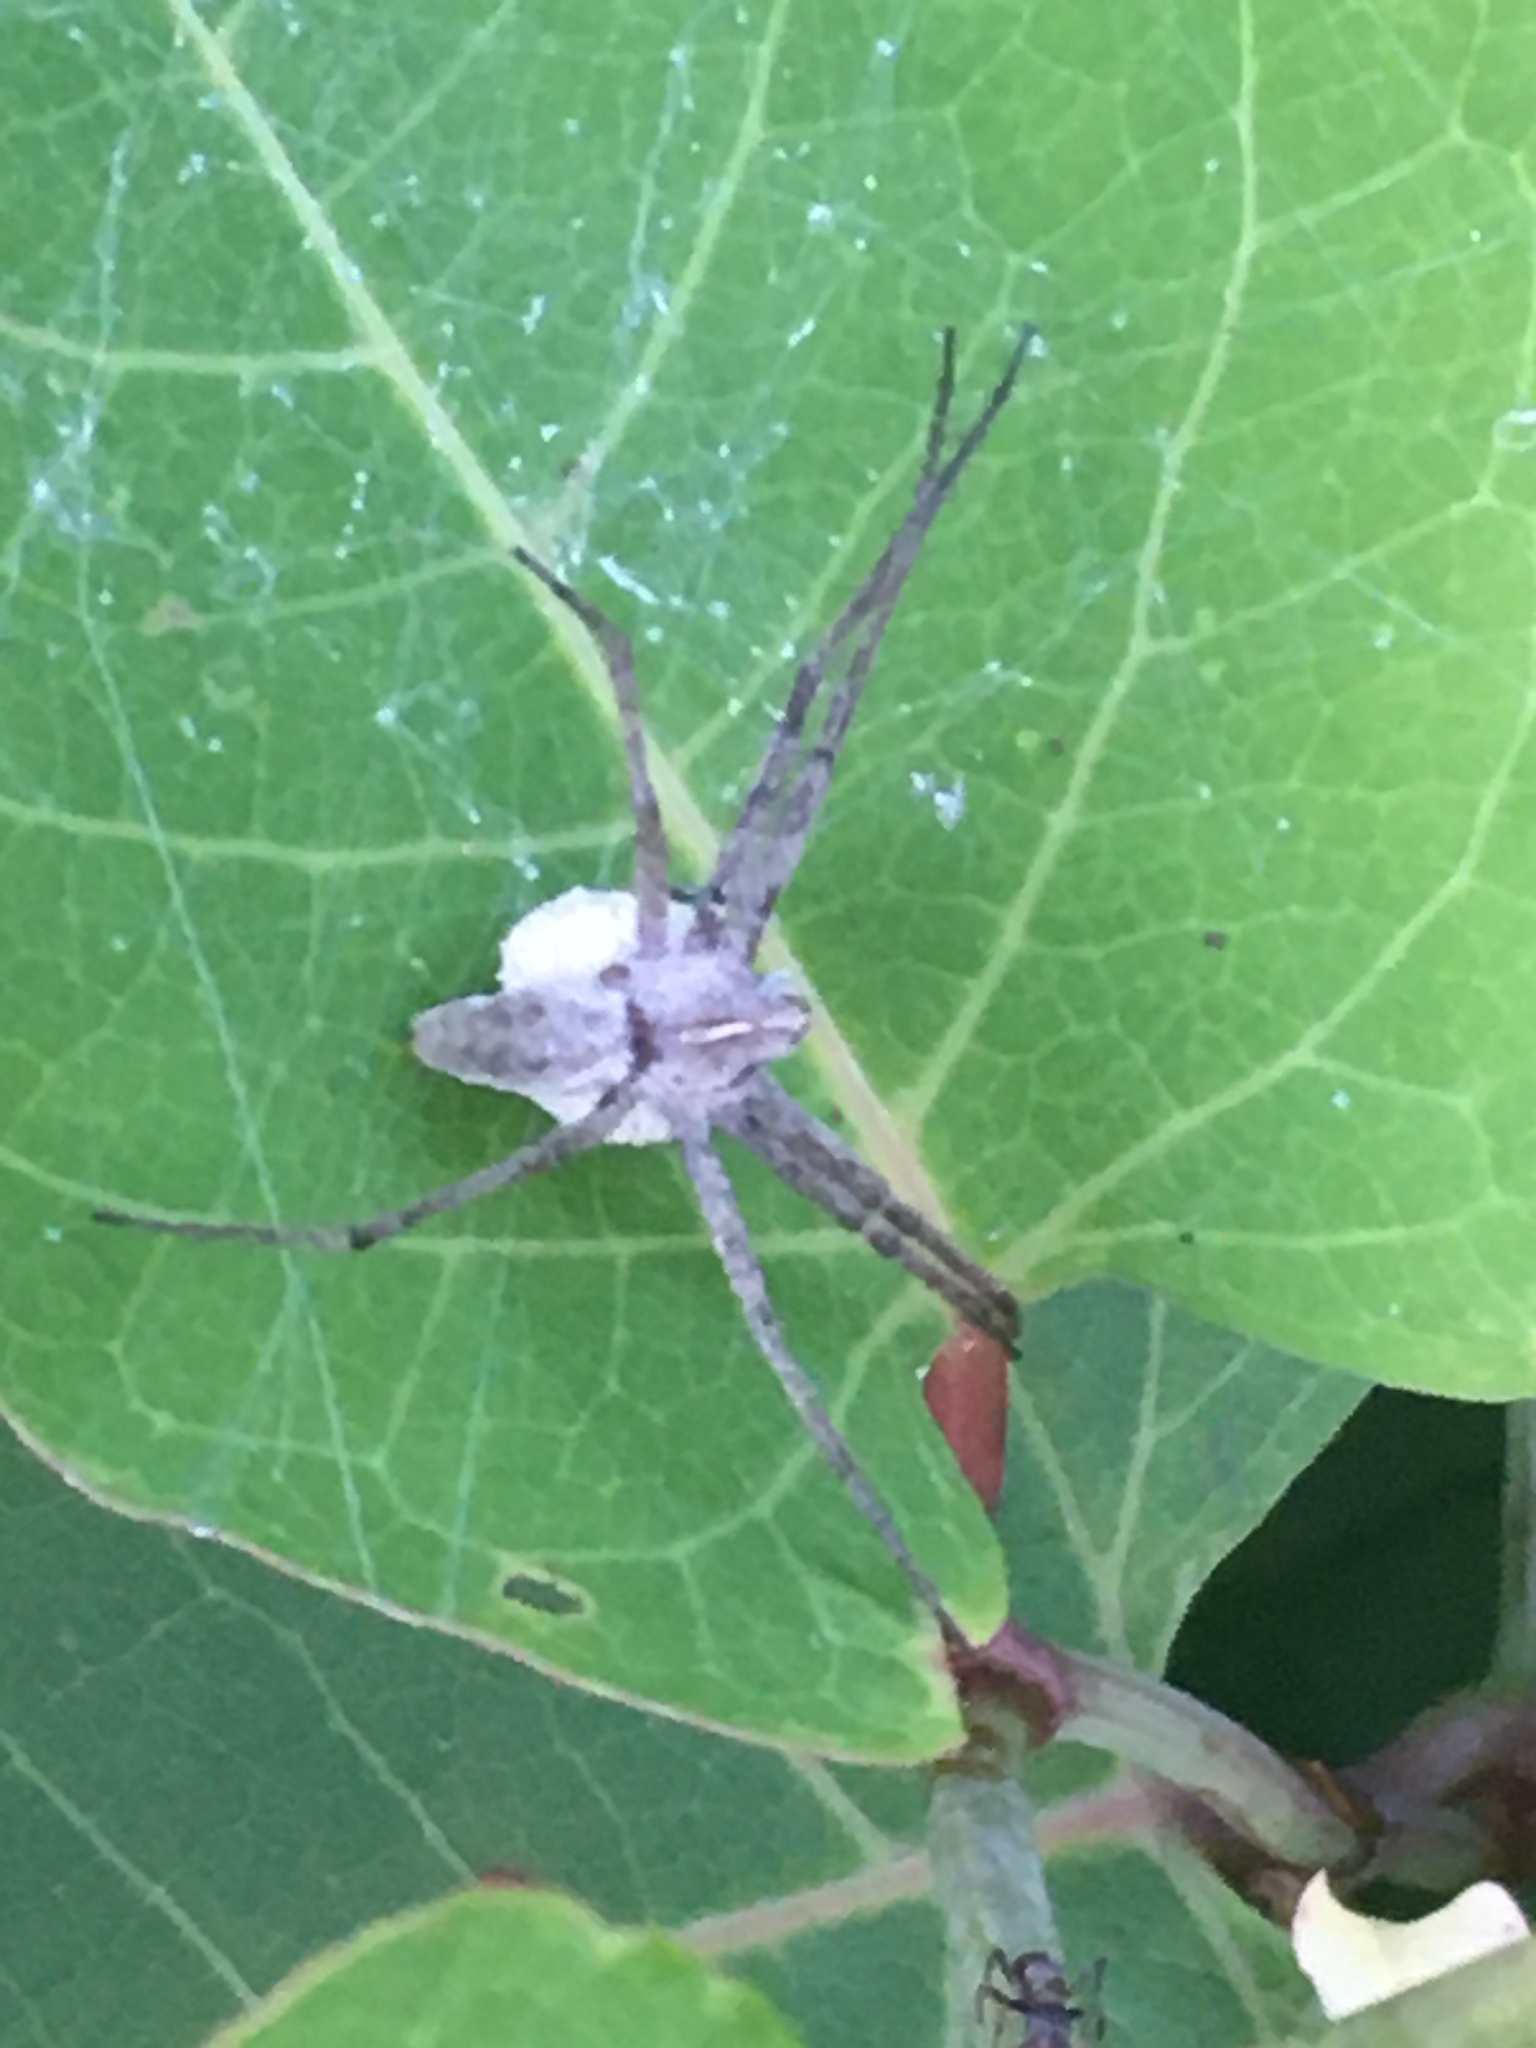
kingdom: Animalia
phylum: Arthropoda
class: Arachnida
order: Araneae
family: Pisauridae
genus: Pisaura
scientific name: Pisaura mirabilis
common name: Tent spider
